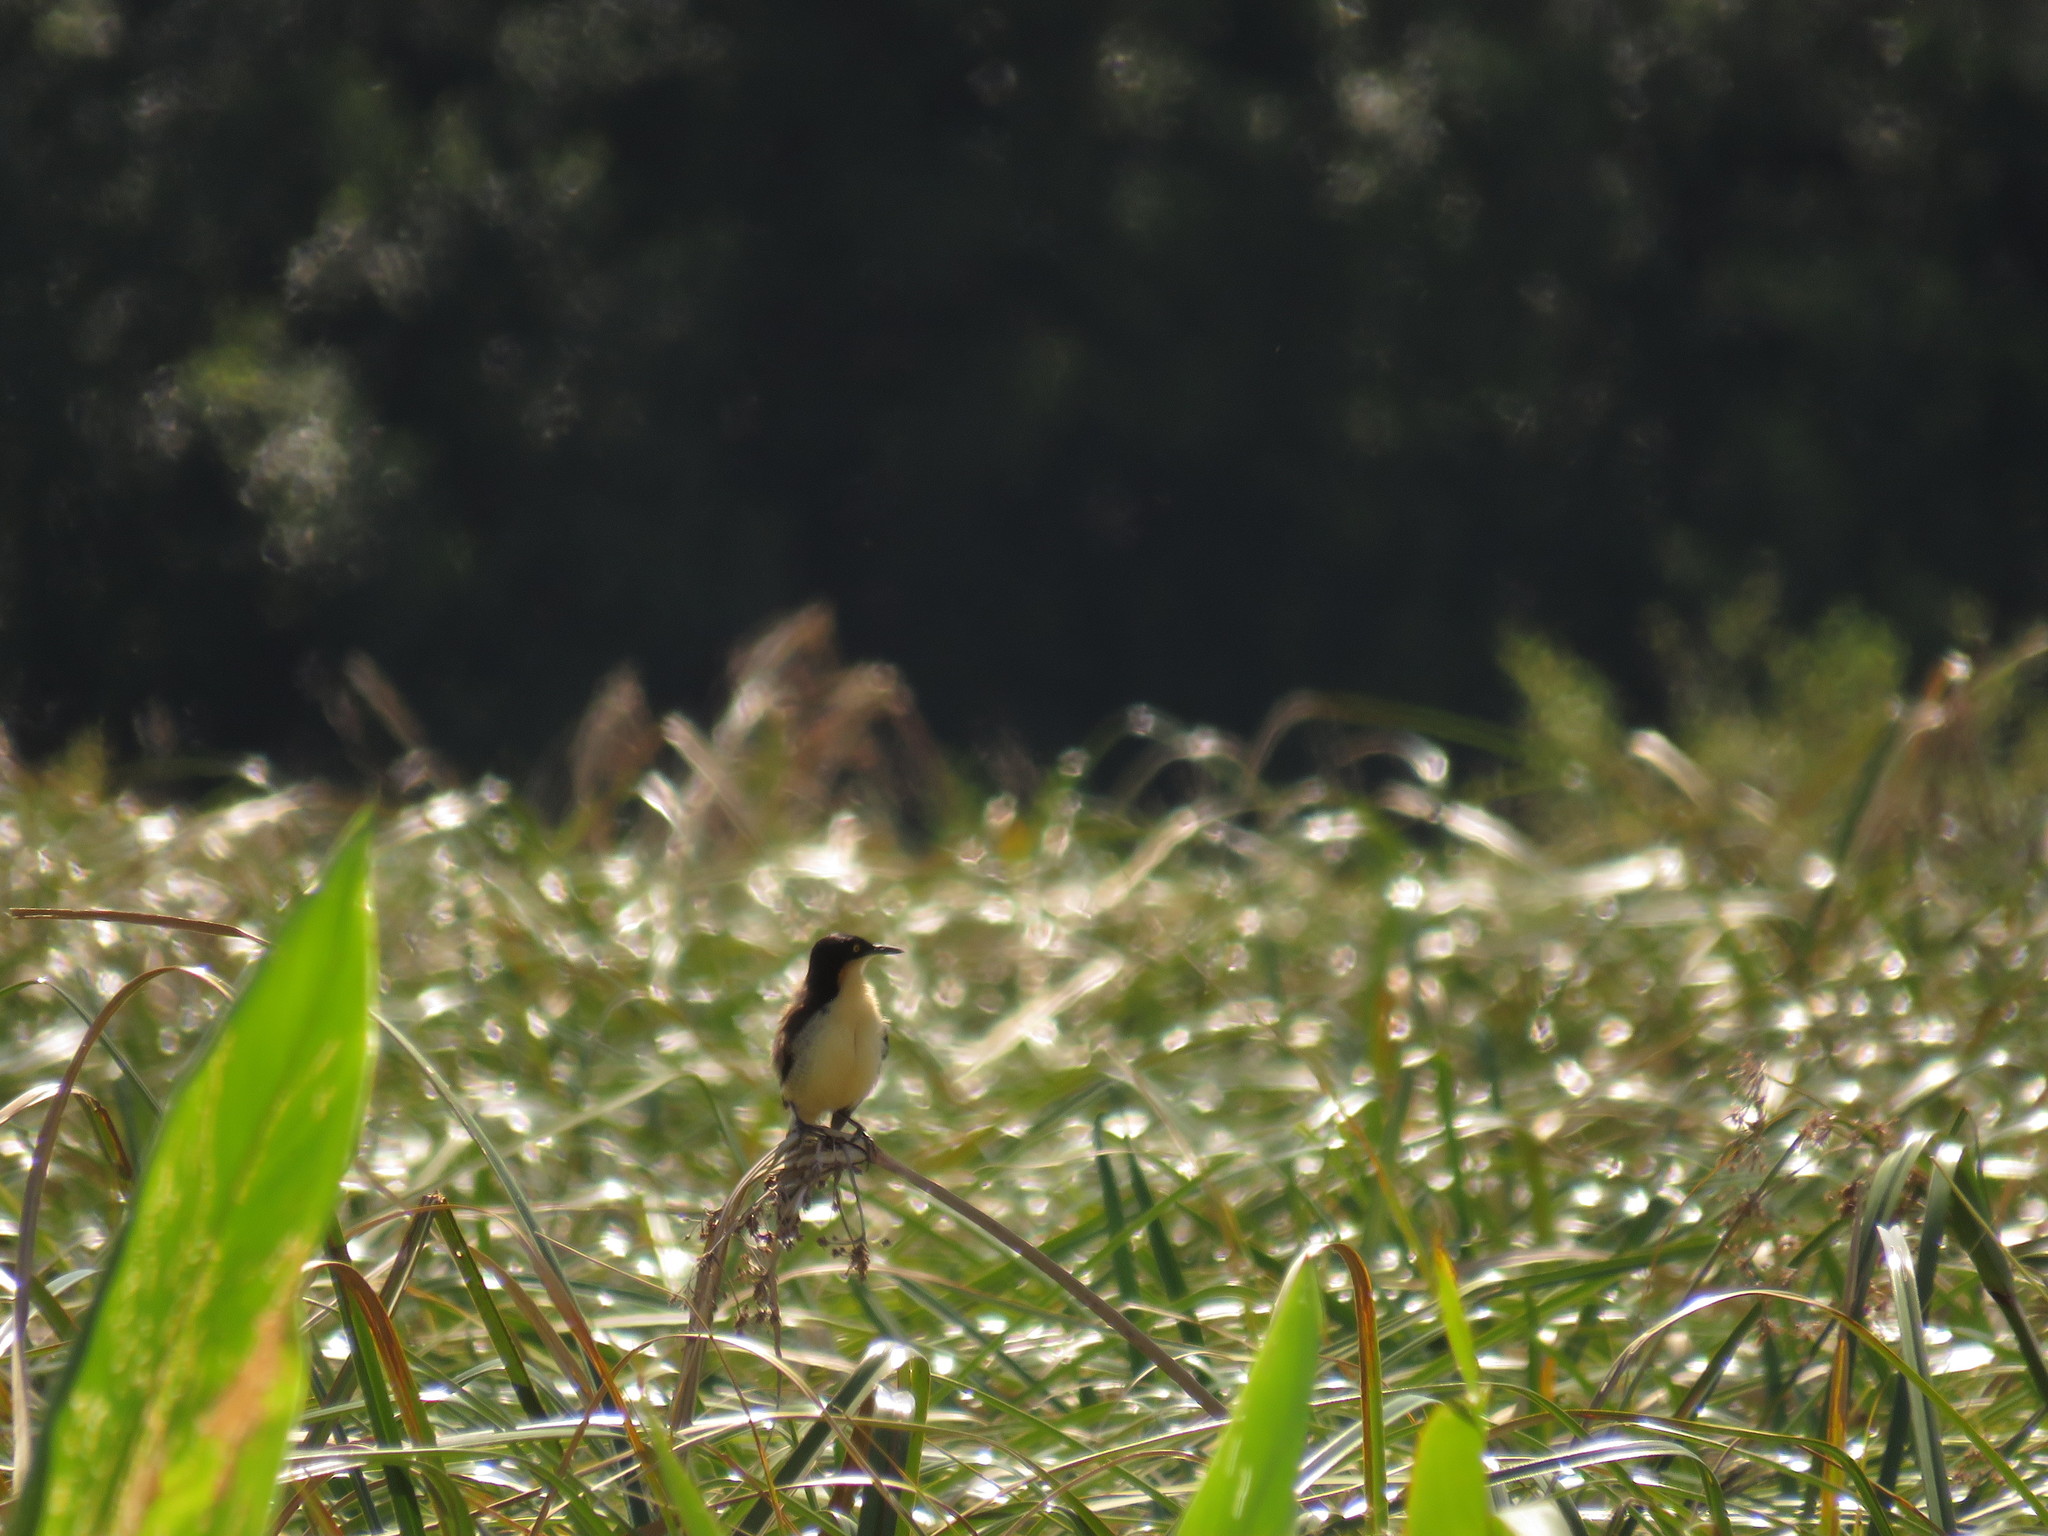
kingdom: Animalia
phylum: Chordata
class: Aves
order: Passeriformes
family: Donacobiidae
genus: Donacobius
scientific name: Donacobius atricapilla
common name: Black-capped donacobius
